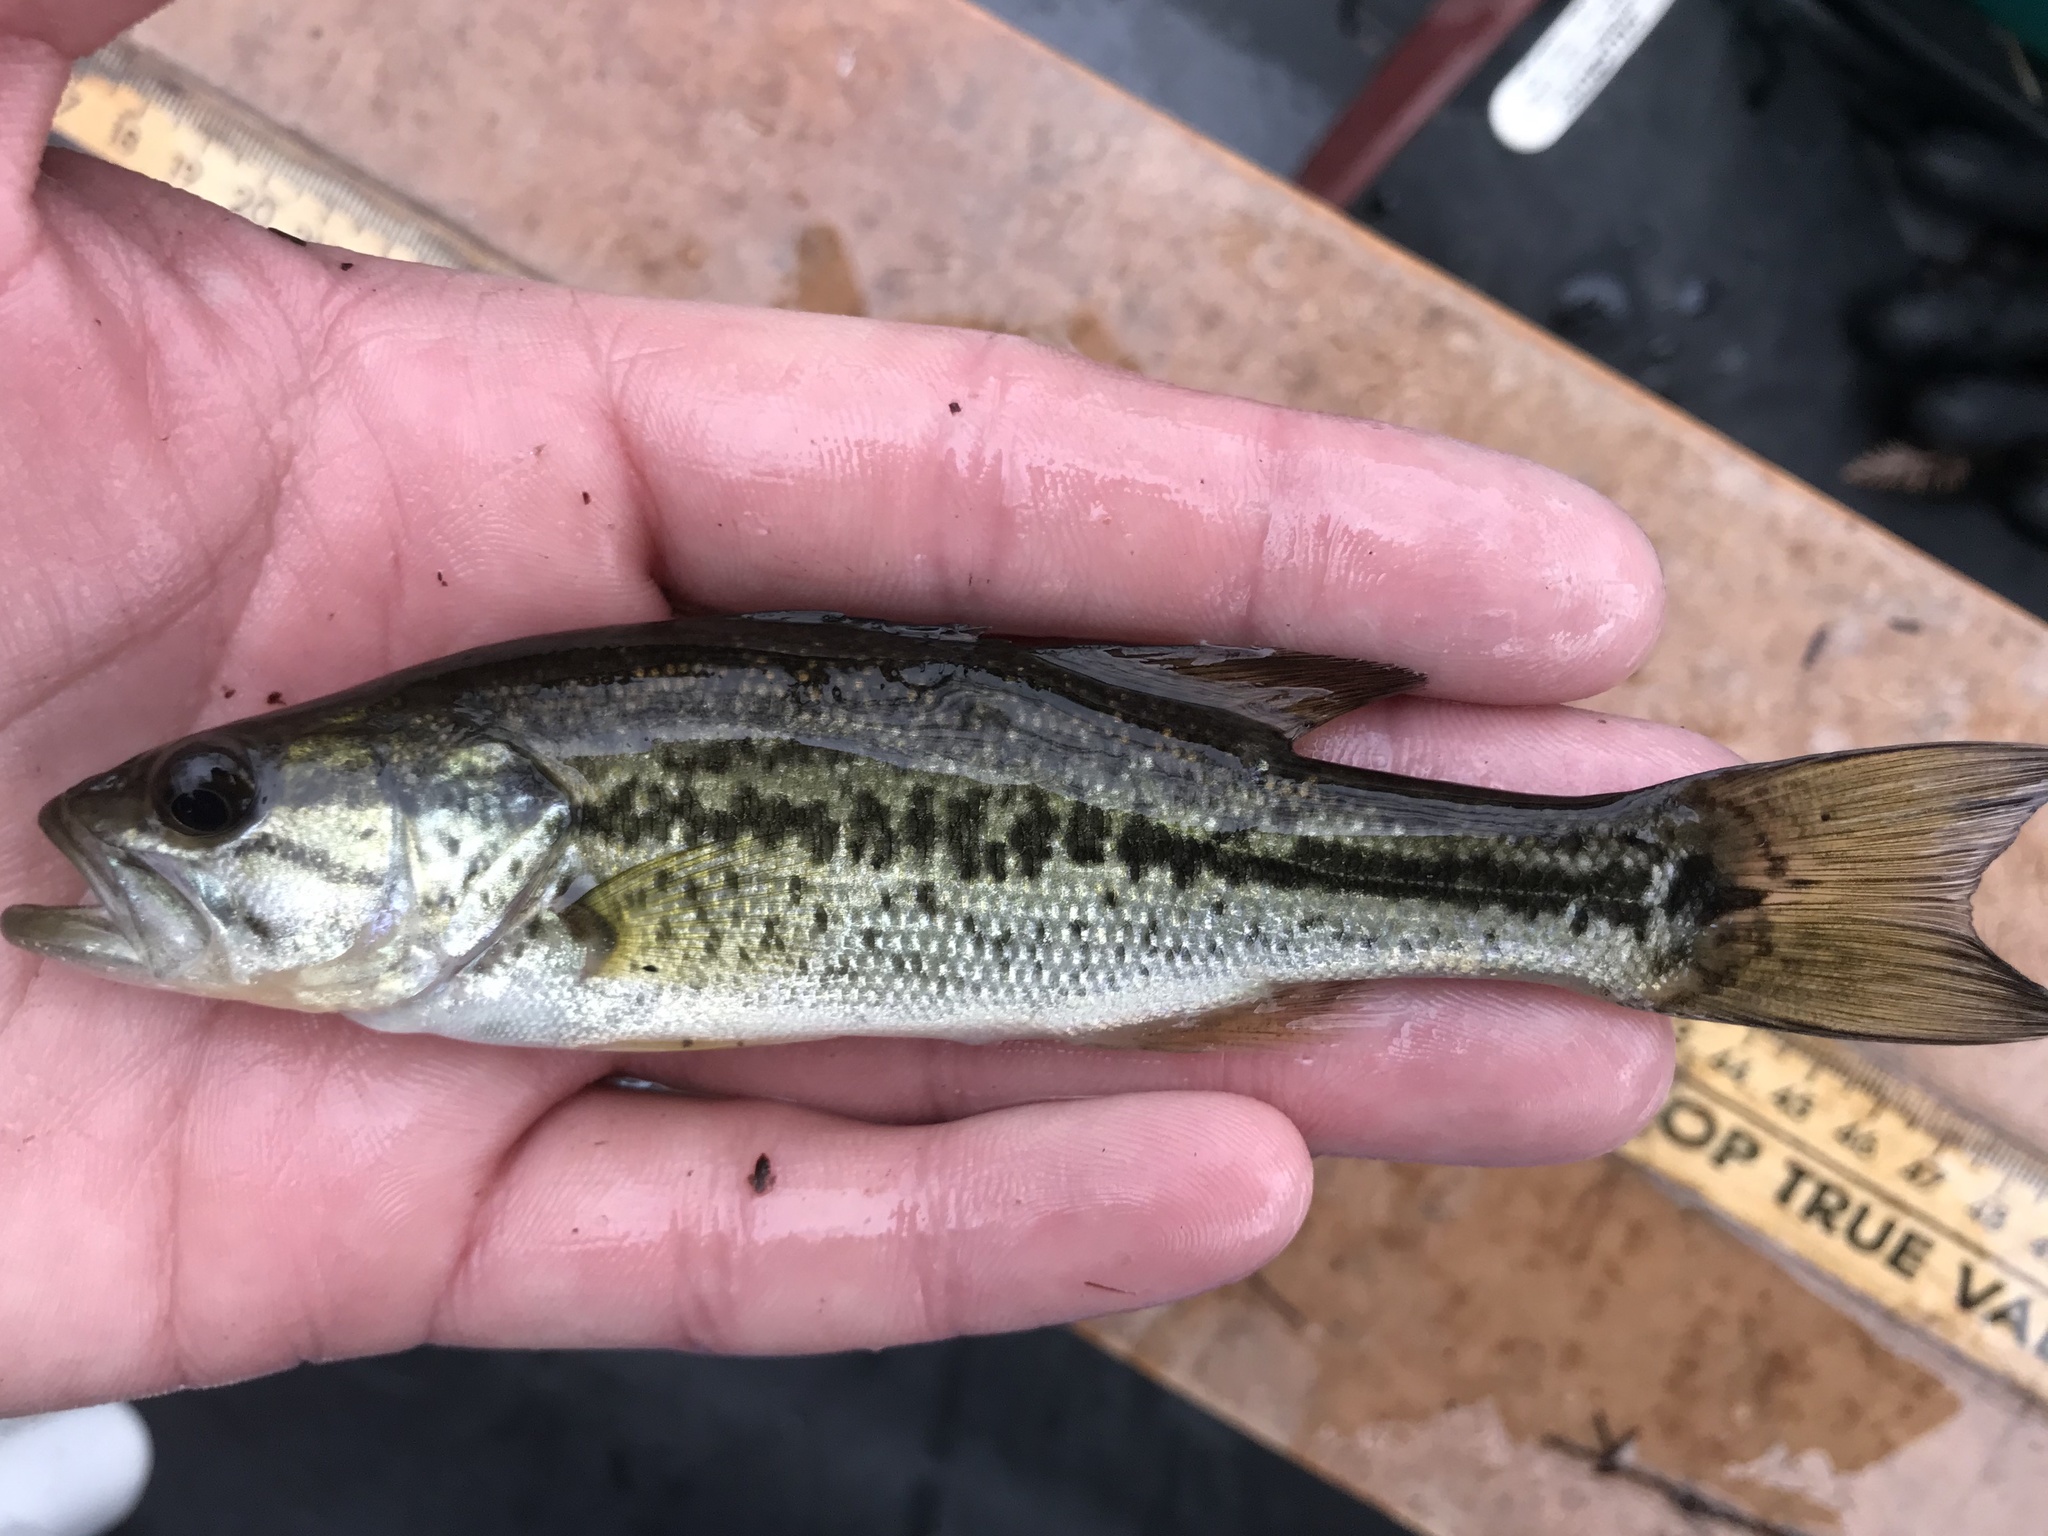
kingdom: Animalia
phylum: Chordata
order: Perciformes
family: Centrarchidae
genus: Micropterus
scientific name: Micropterus
